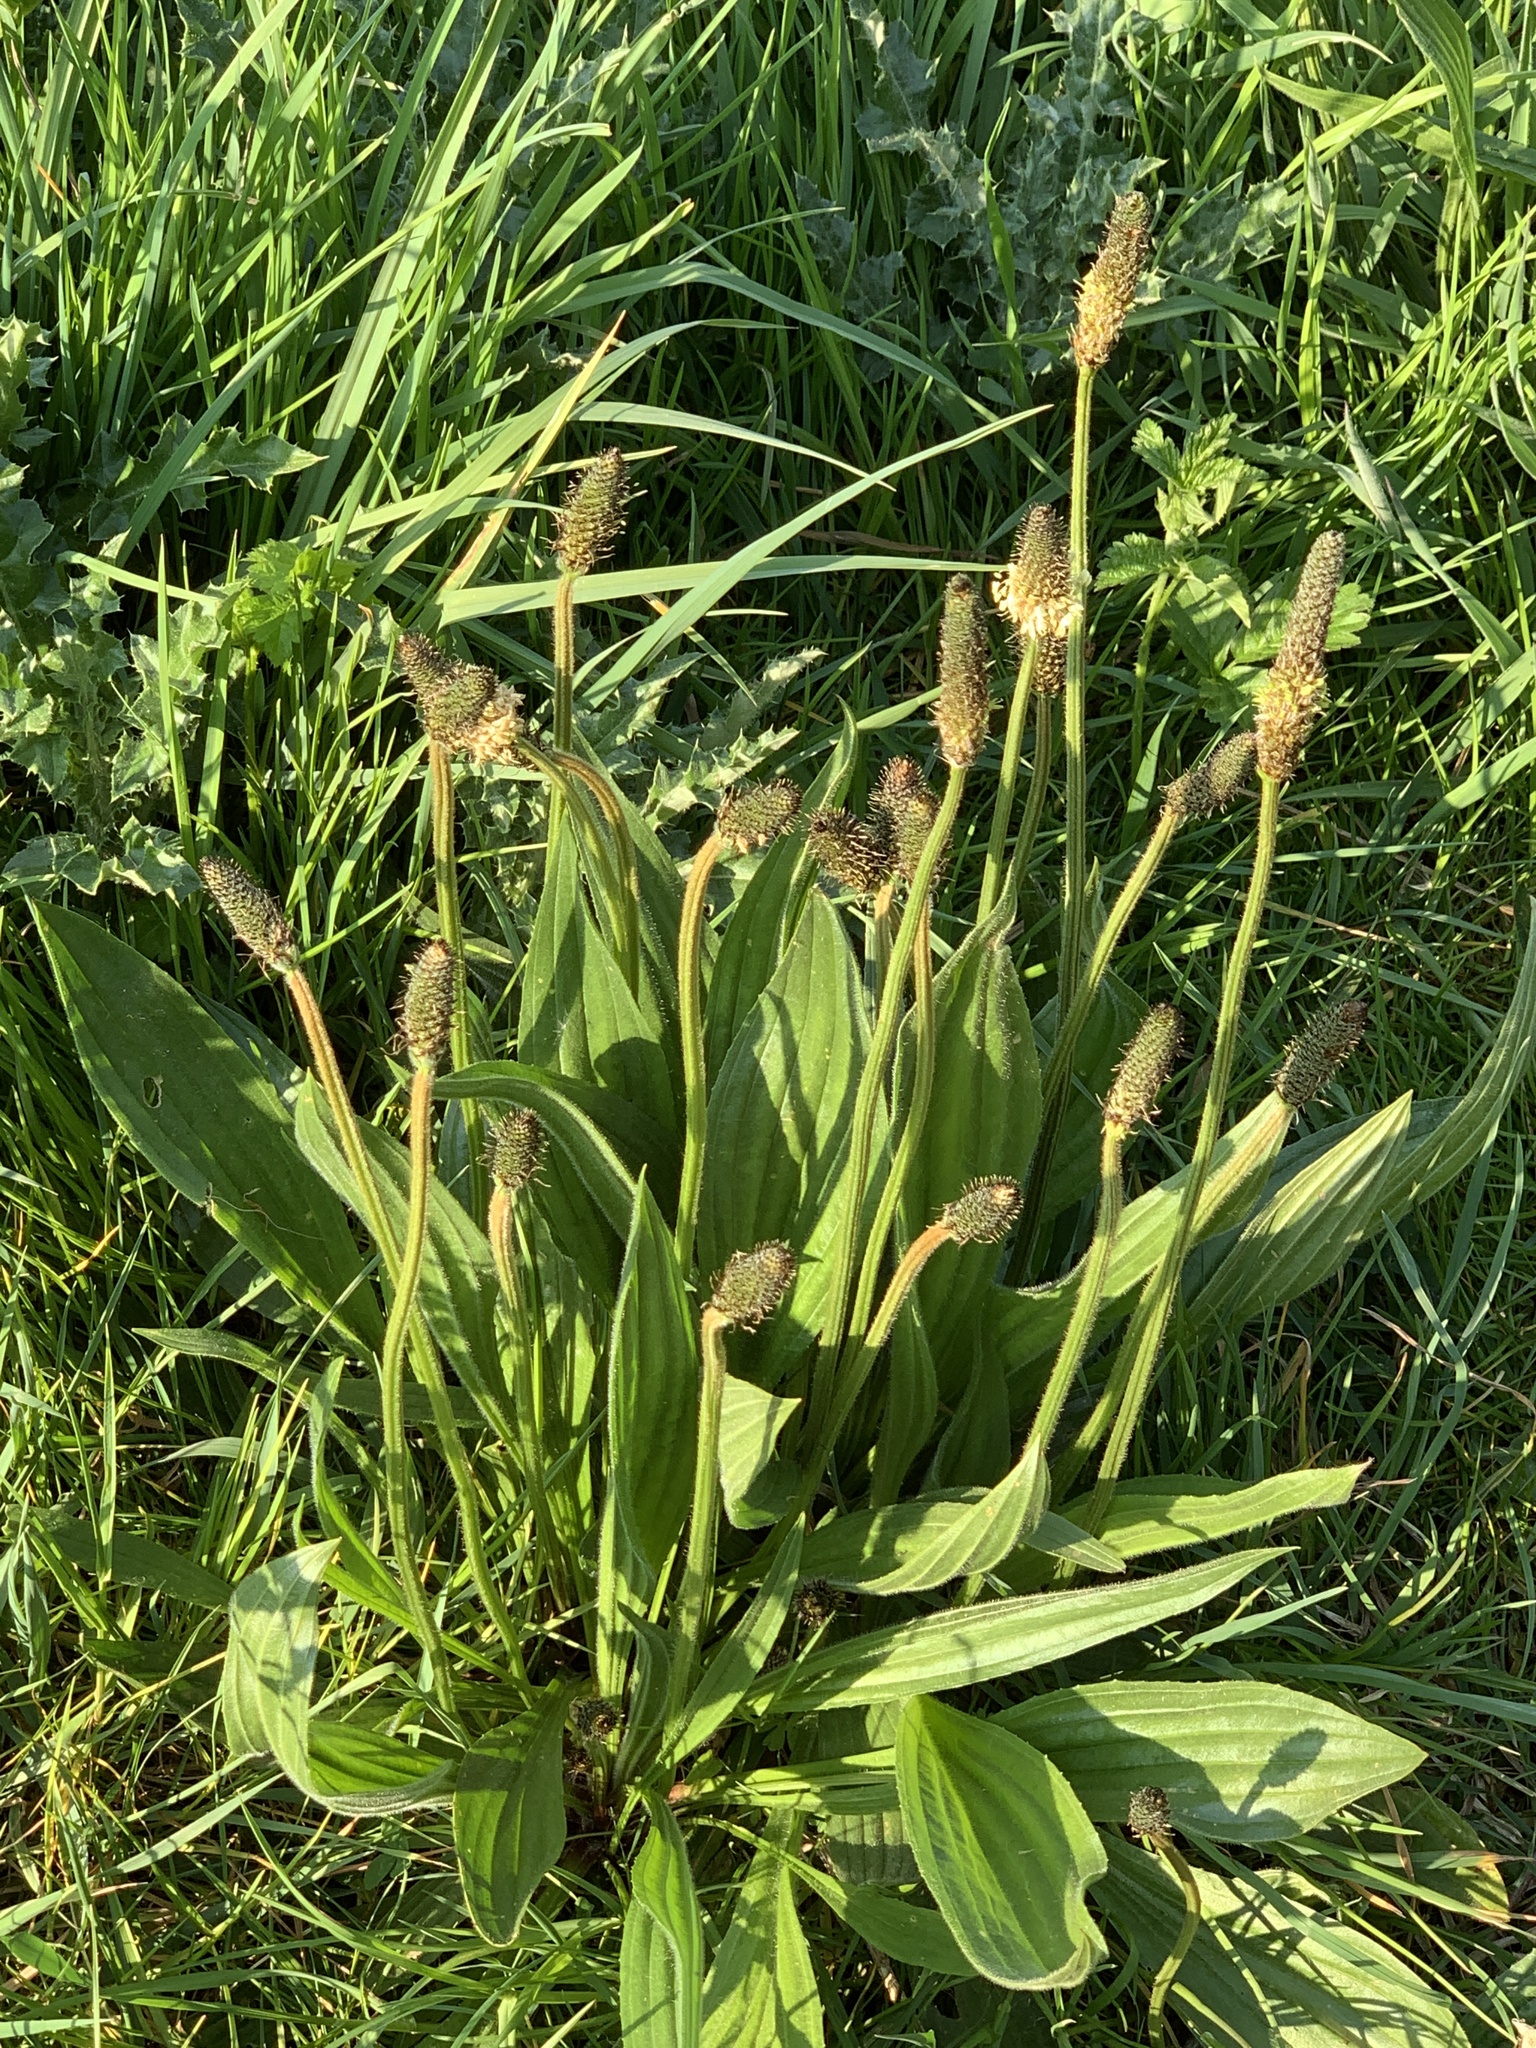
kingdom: Plantae
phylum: Tracheophyta
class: Magnoliopsida
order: Lamiales
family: Plantaginaceae
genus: Plantago
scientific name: Plantago lanceolata
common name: Ribwort plantain
